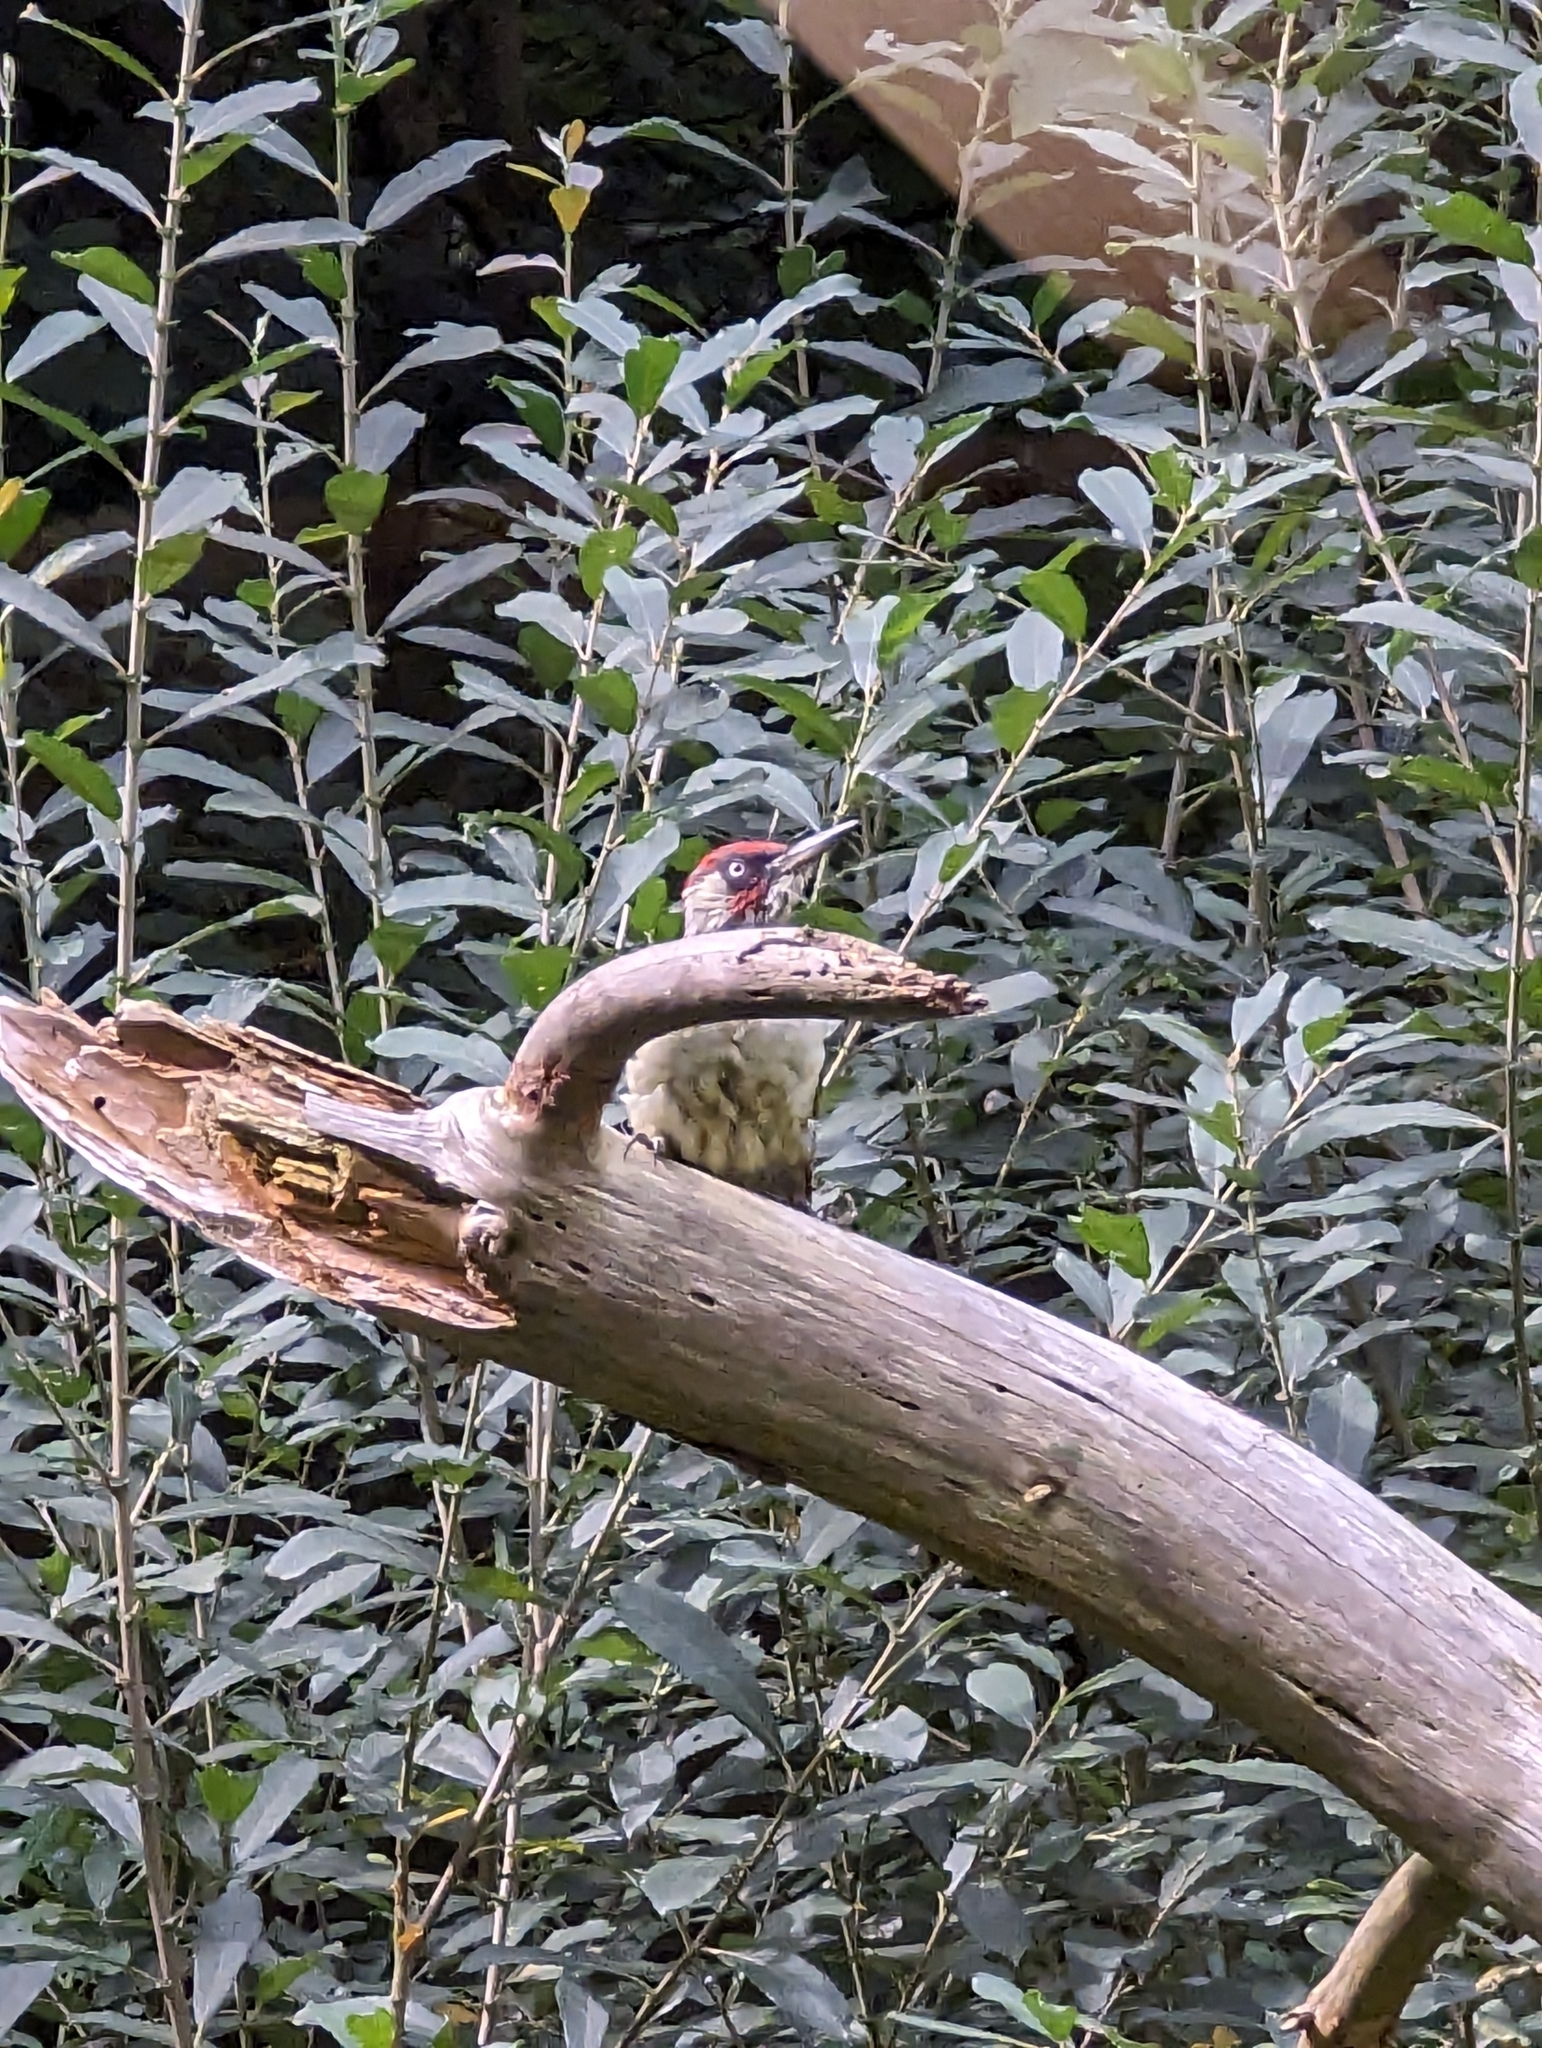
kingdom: Animalia
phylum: Chordata
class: Aves
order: Piciformes
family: Picidae
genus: Picus
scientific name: Picus viridis
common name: European green woodpecker
